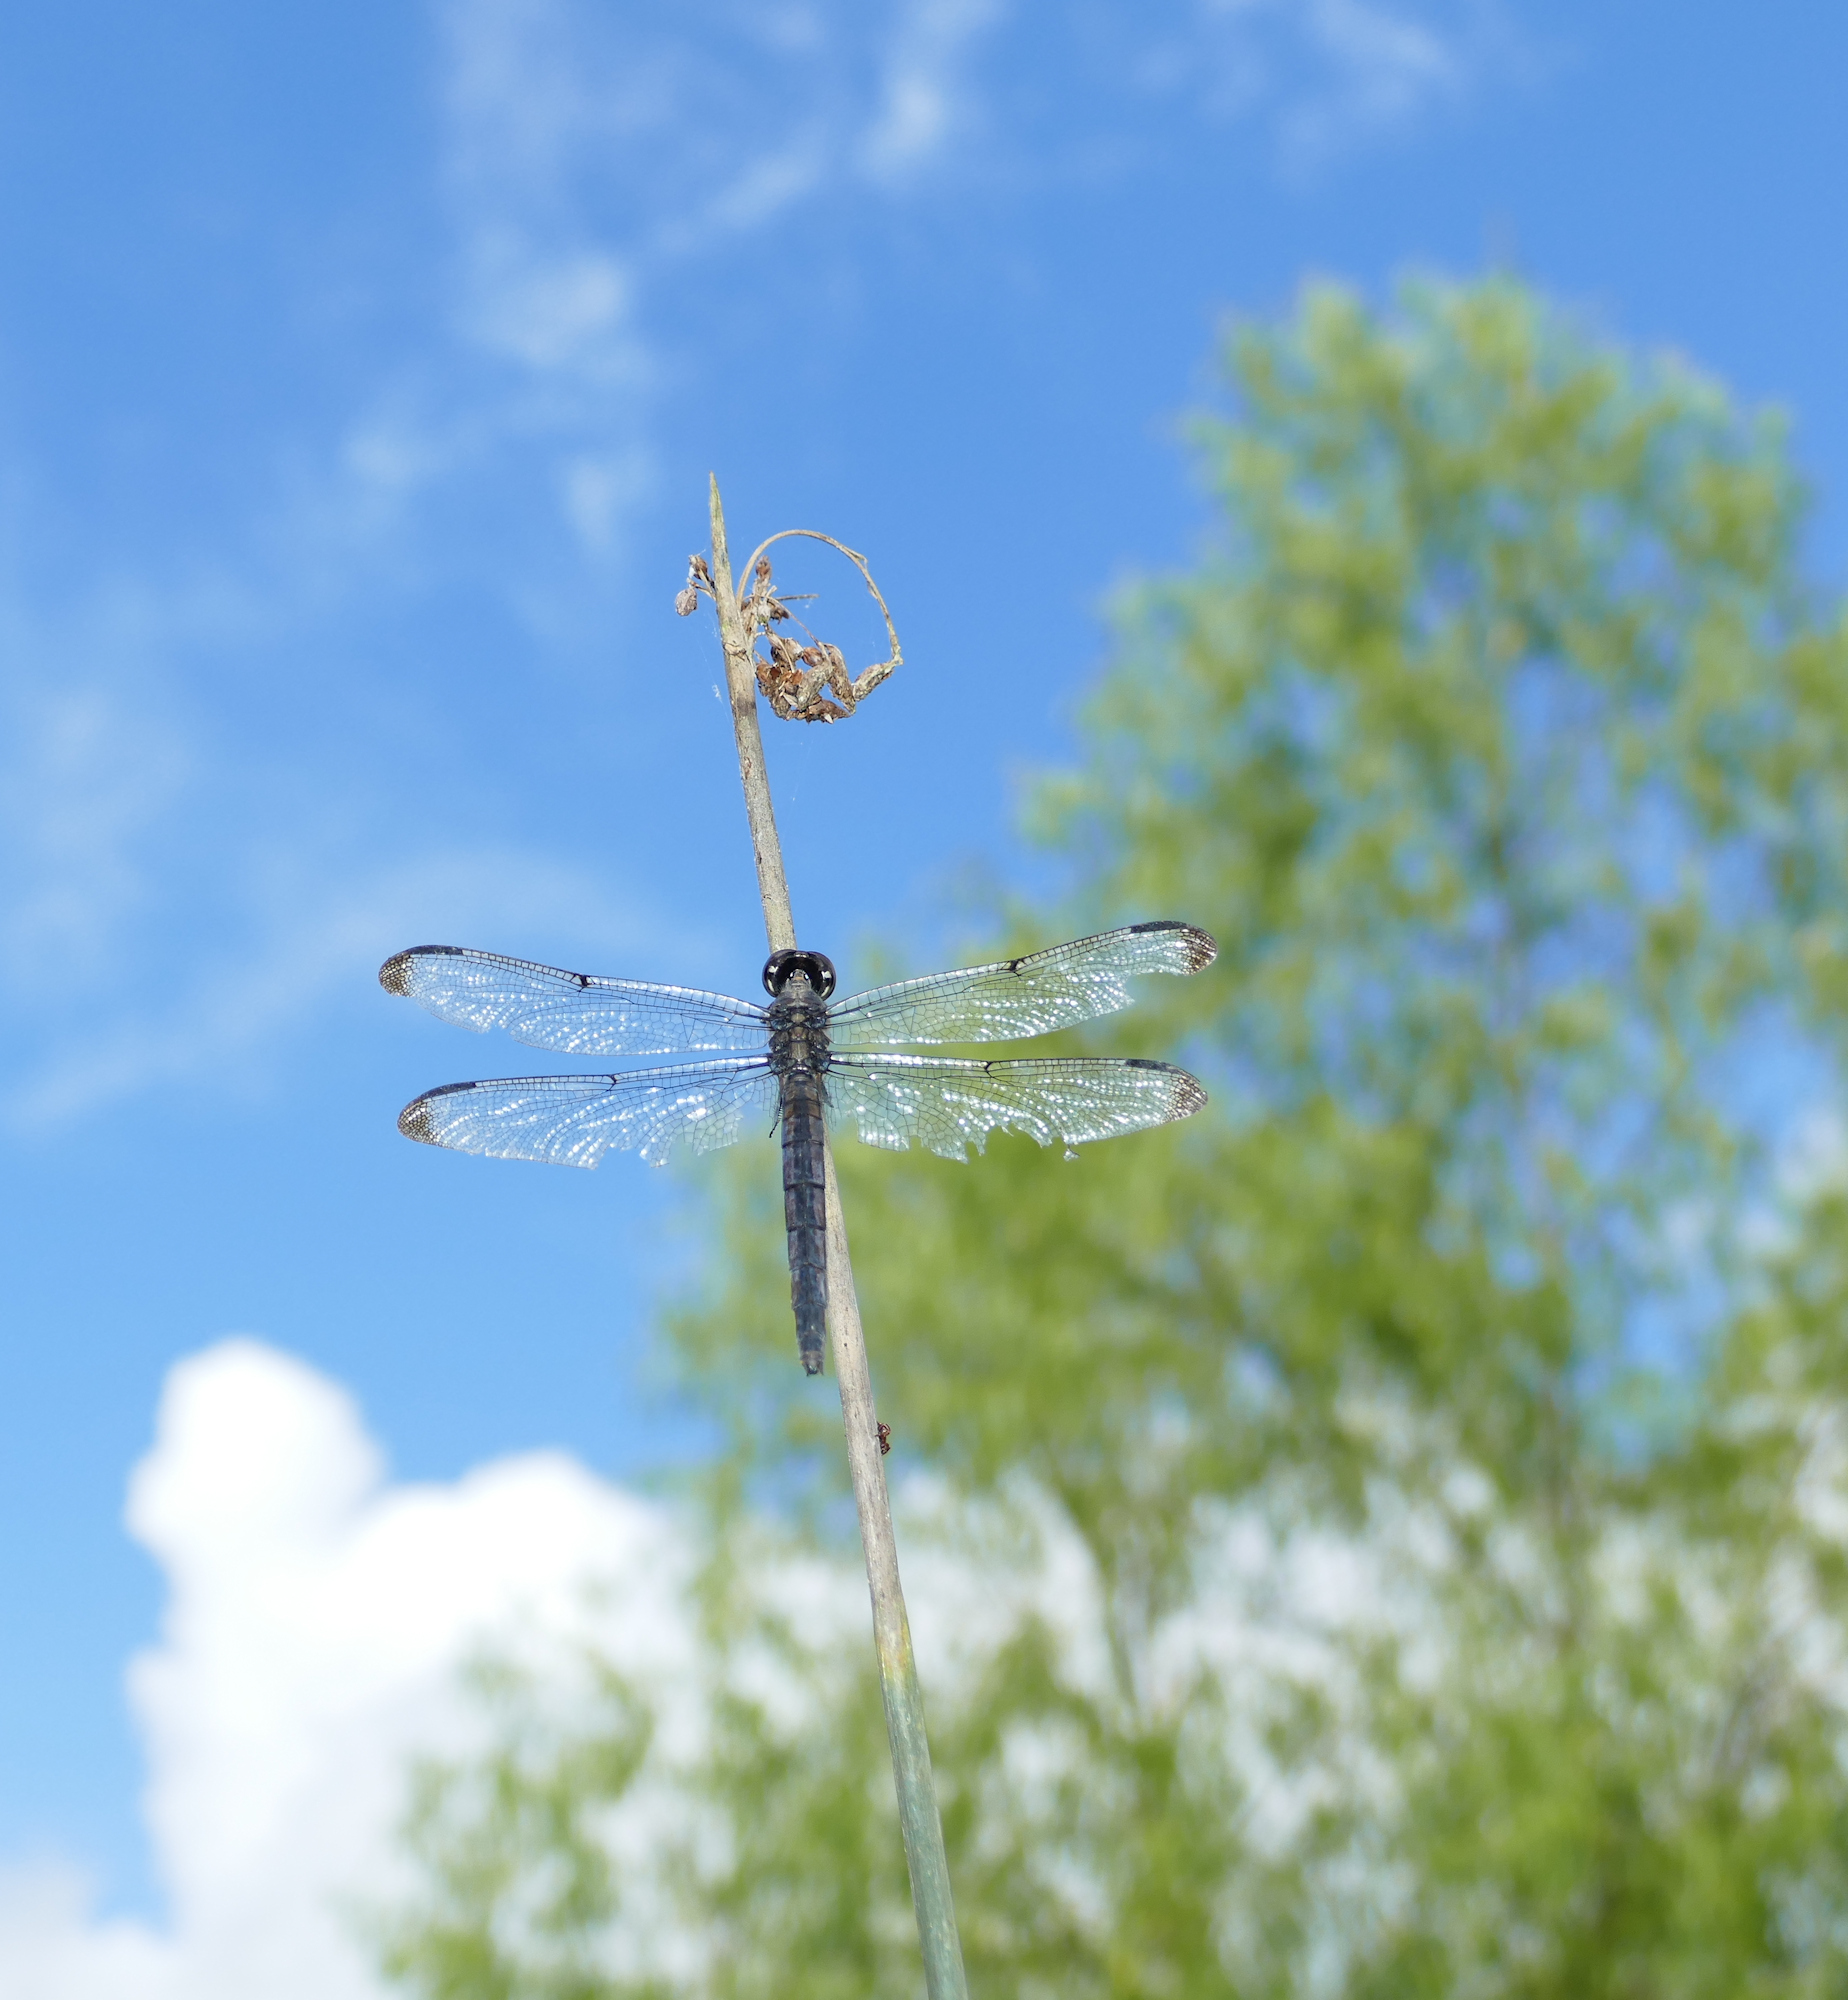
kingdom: Animalia
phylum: Arthropoda
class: Insecta
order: Odonata
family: Libellulidae
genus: Erythemis
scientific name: Erythemis simplicicollis
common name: Eastern pondhawk
